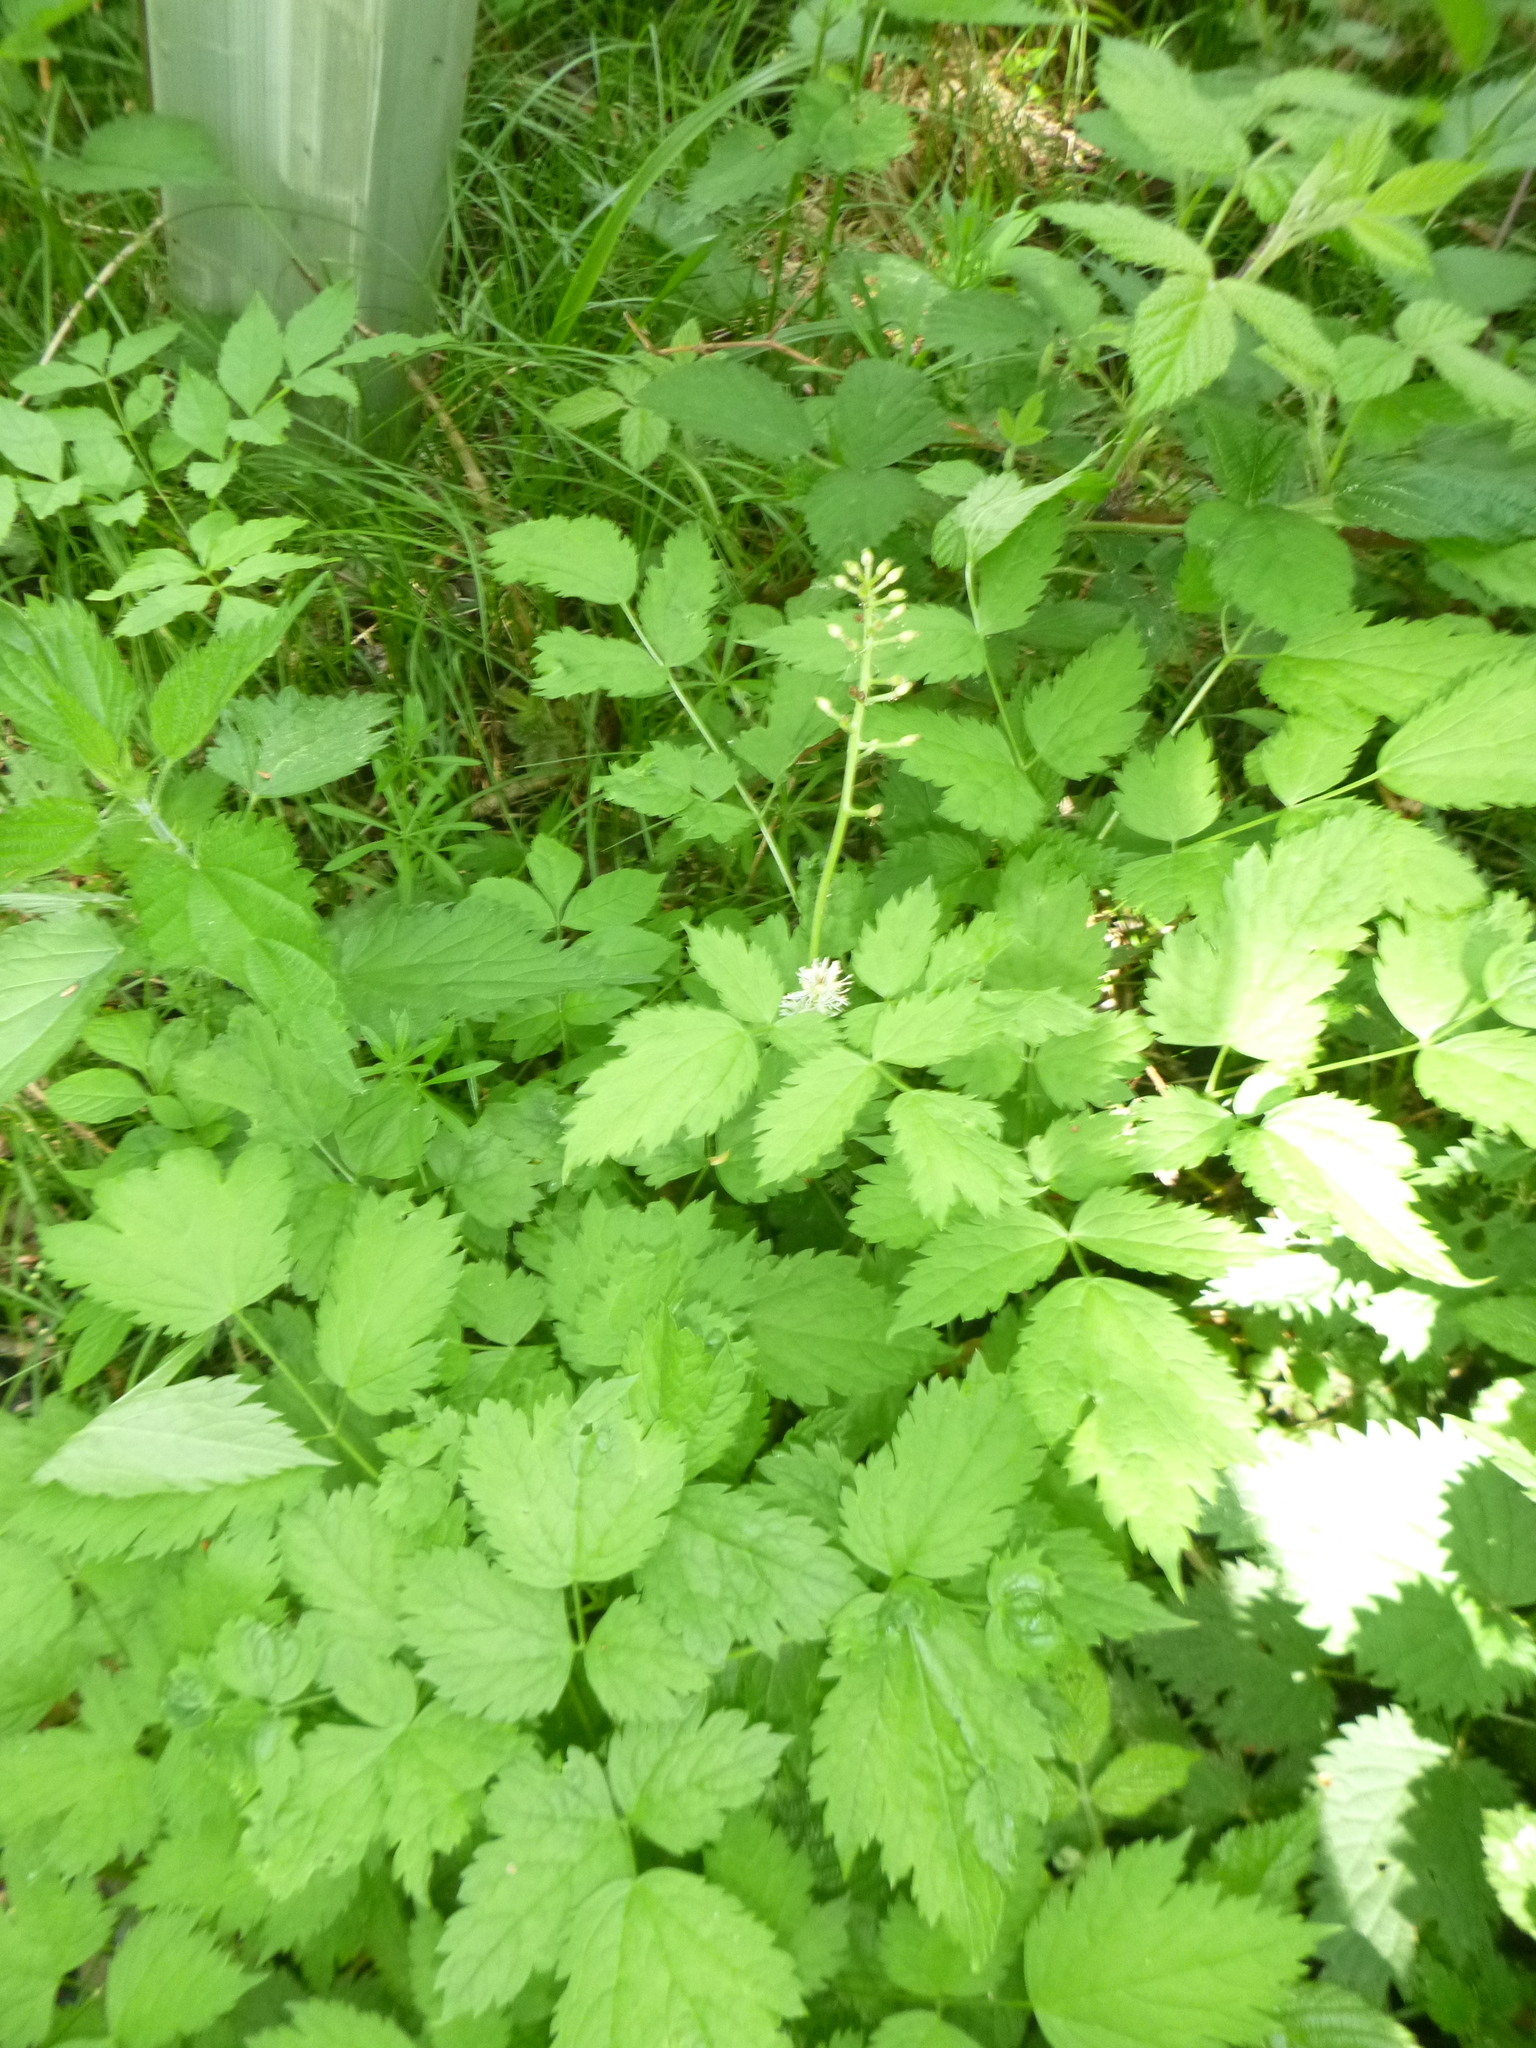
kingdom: Plantae
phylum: Tracheophyta
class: Magnoliopsida
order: Ranunculales
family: Ranunculaceae
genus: Actaea
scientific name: Actaea spicata
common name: Baneberry
